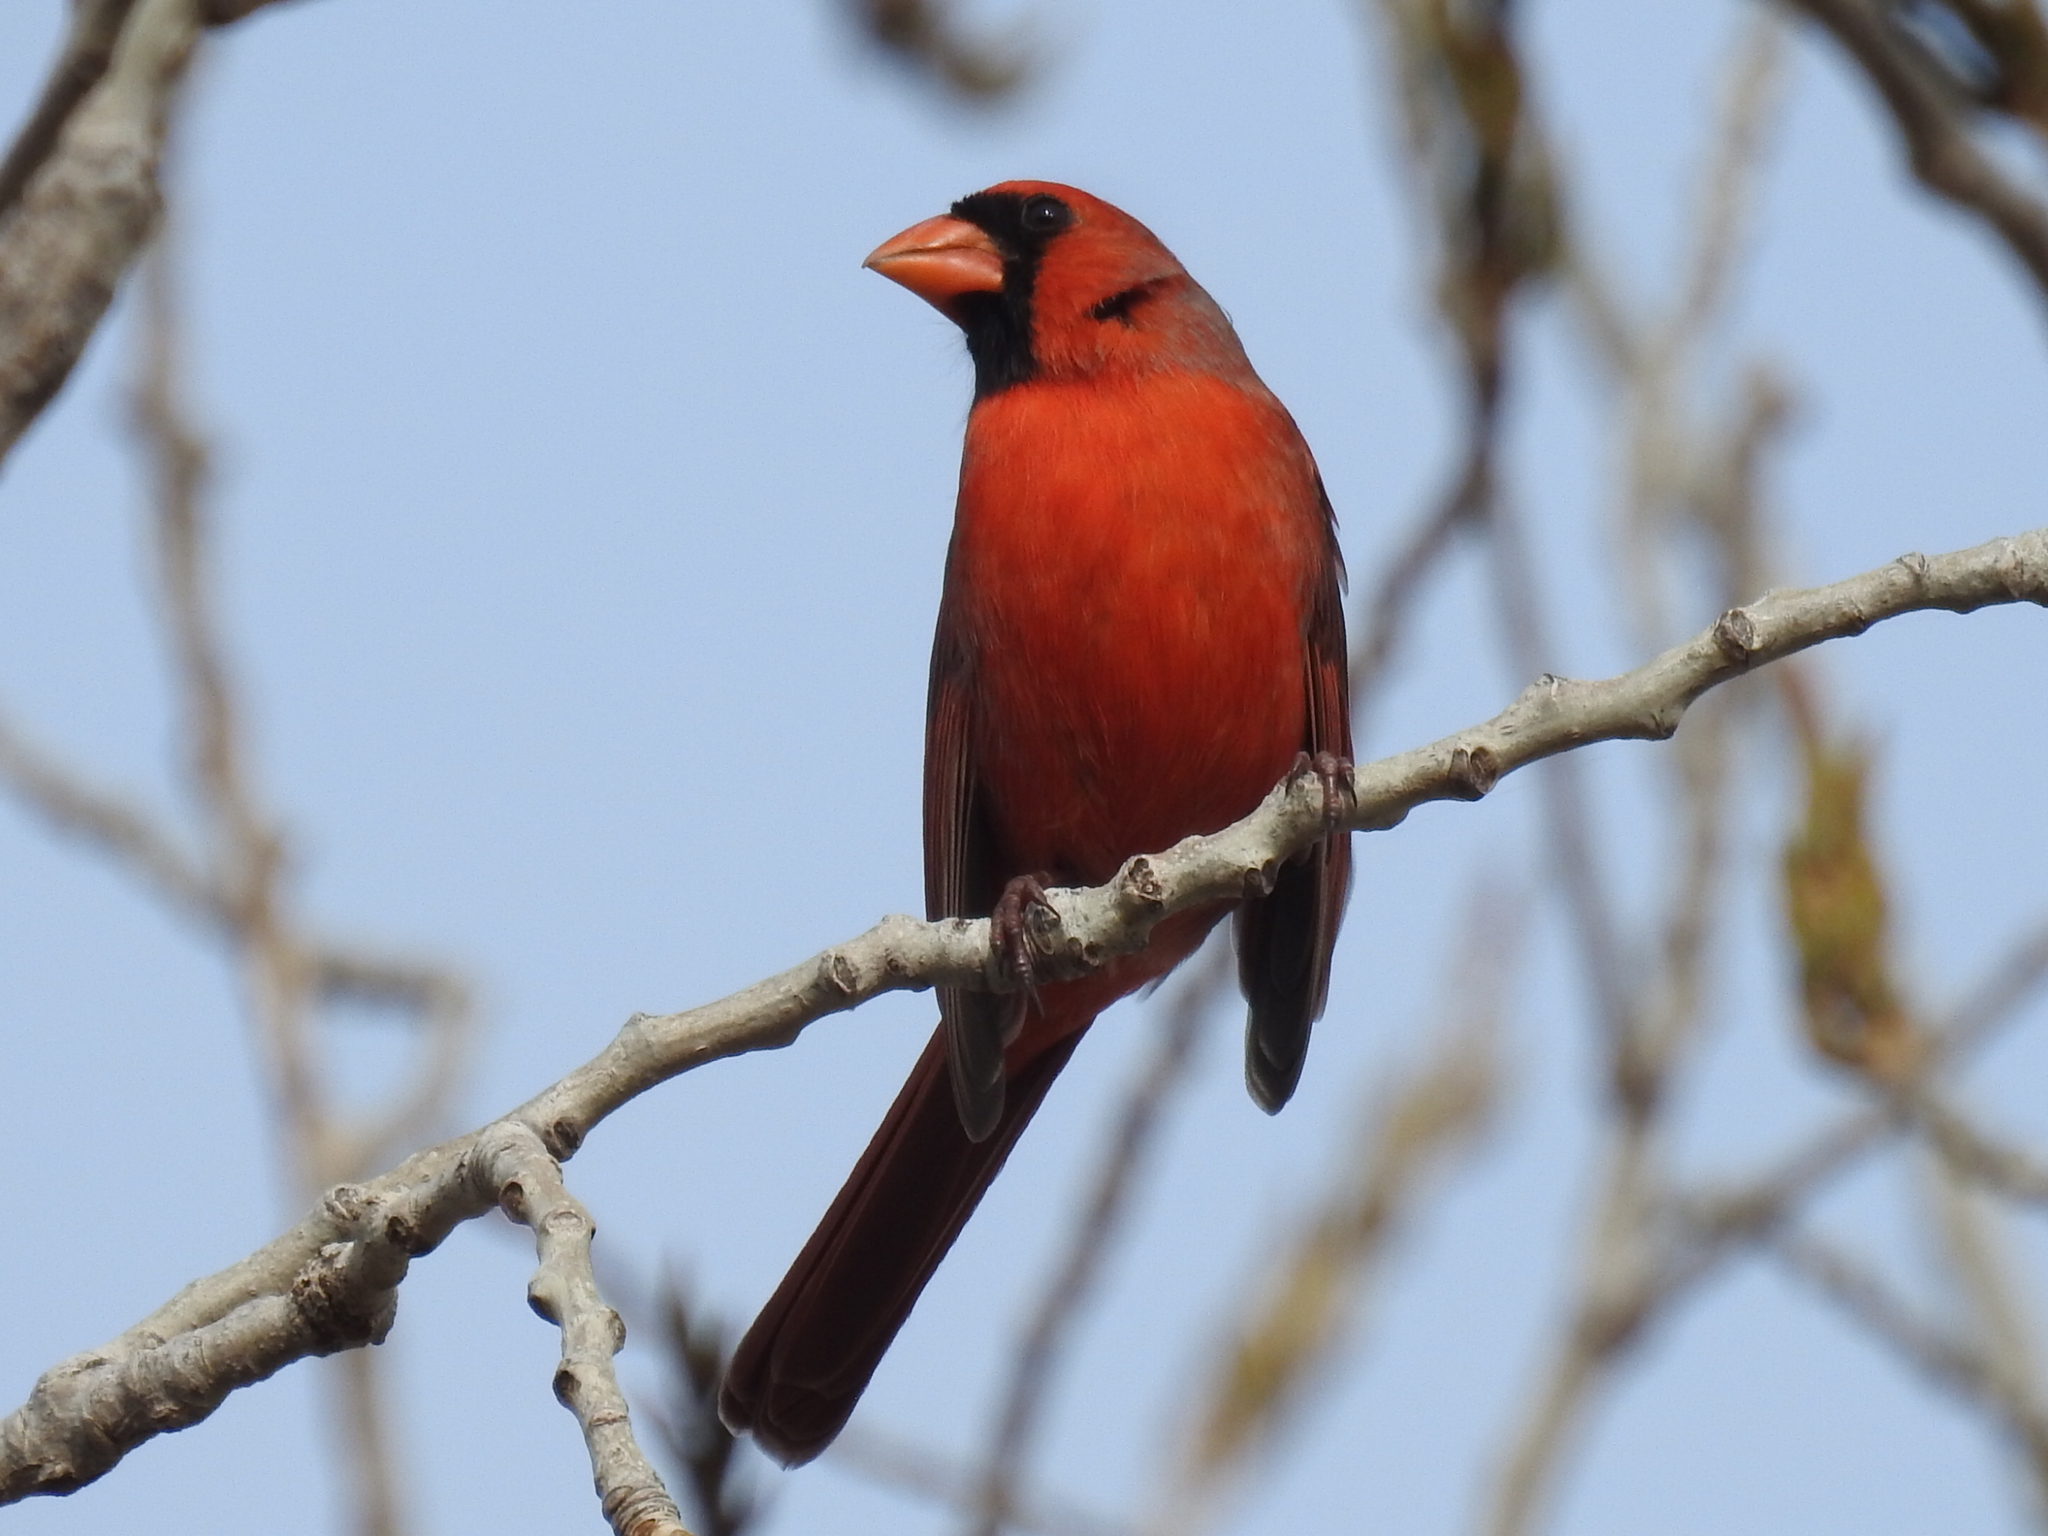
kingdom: Animalia
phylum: Chordata
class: Aves
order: Passeriformes
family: Cardinalidae
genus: Cardinalis
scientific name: Cardinalis cardinalis
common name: Northern cardinal
